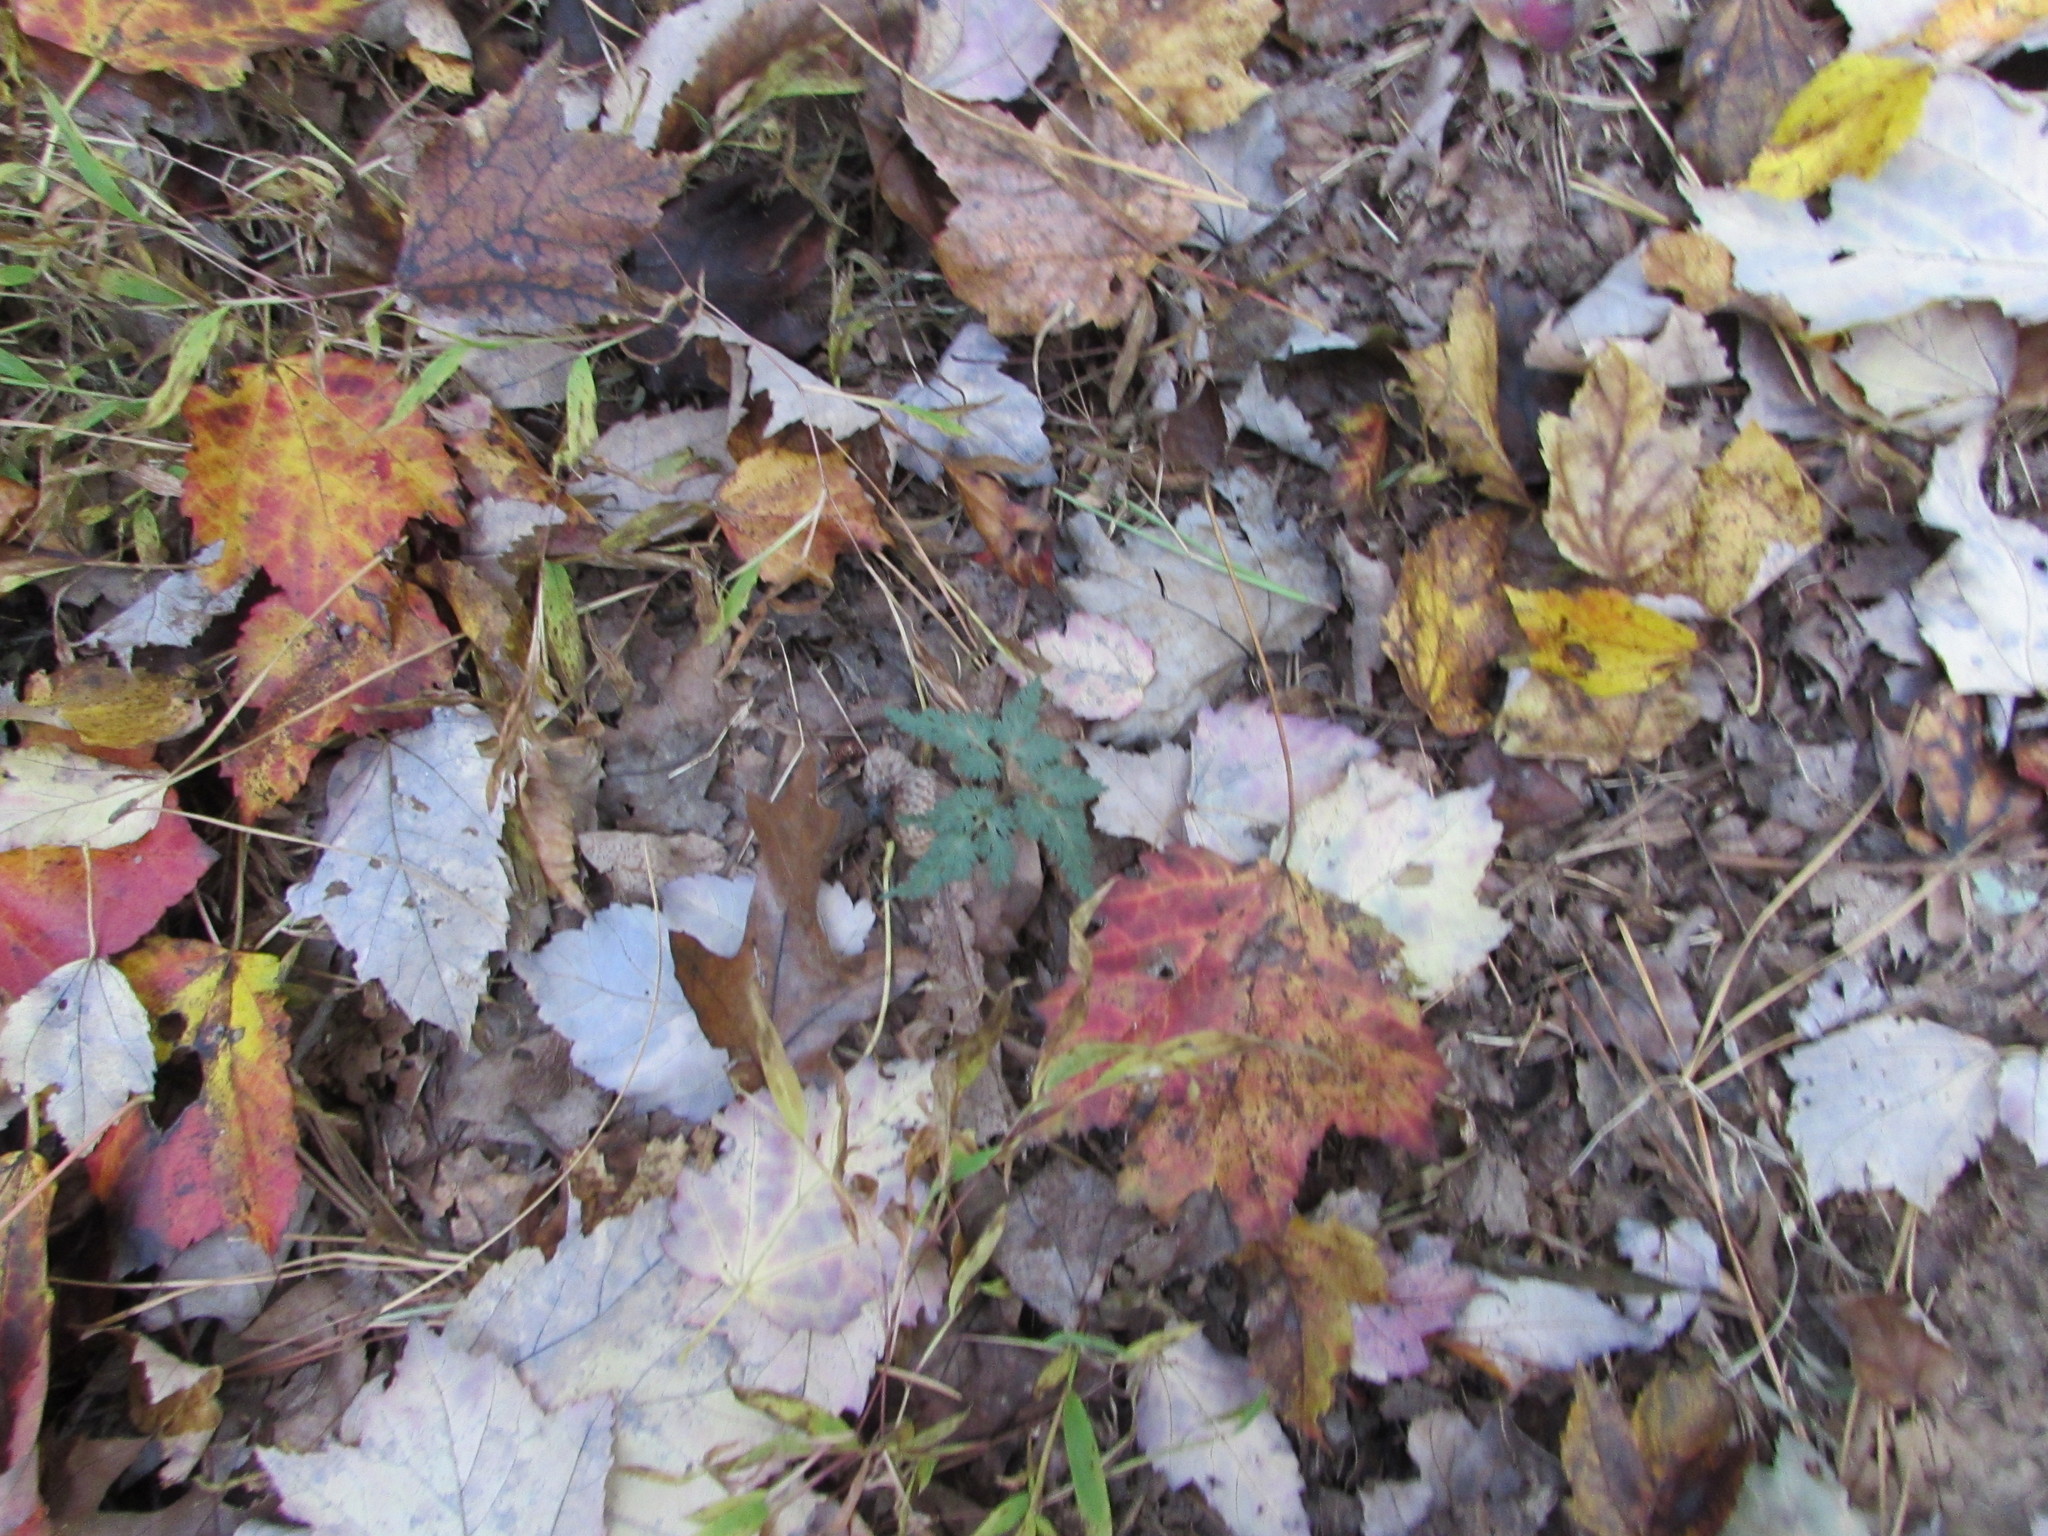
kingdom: Plantae
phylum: Tracheophyta
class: Polypodiopsida
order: Ophioglossales
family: Ophioglossaceae
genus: Sceptridium
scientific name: Sceptridium dissectum
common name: Cut-leaved grapefern
